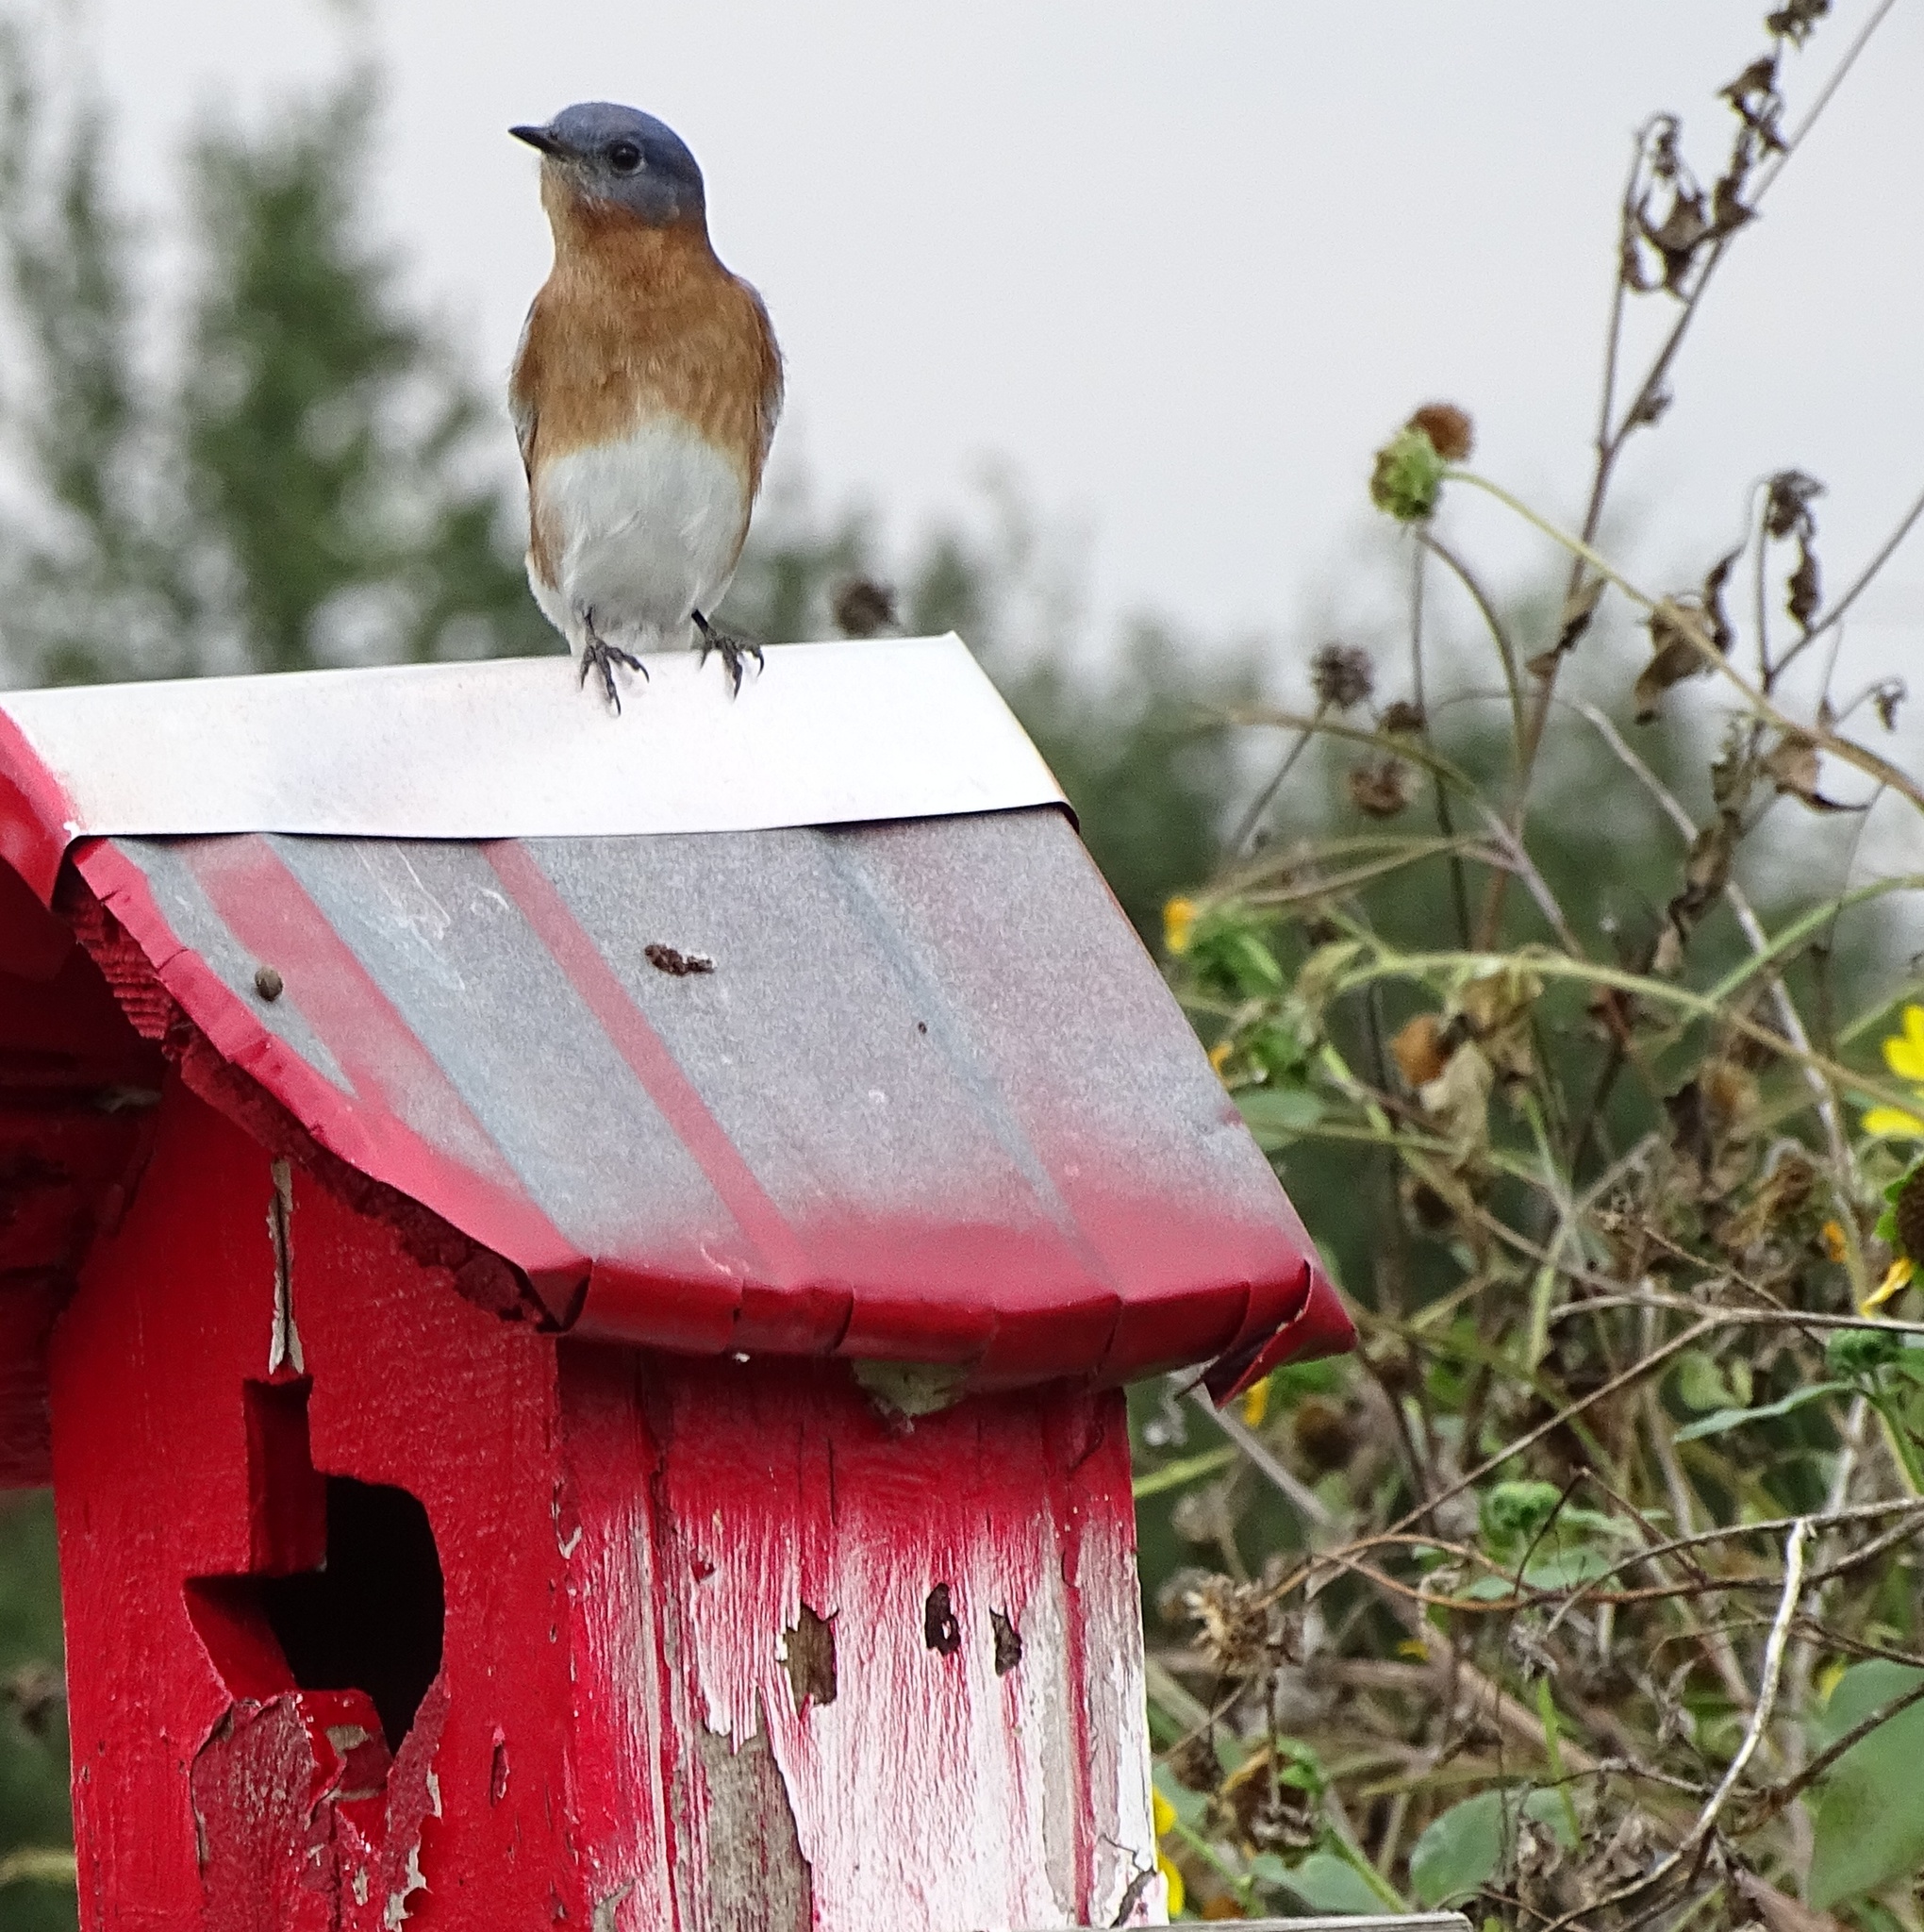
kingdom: Animalia
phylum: Chordata
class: Aves
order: Passeriformes
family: Turdidae
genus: Sialia
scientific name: Sialia sialis
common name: Eastern bluebird
